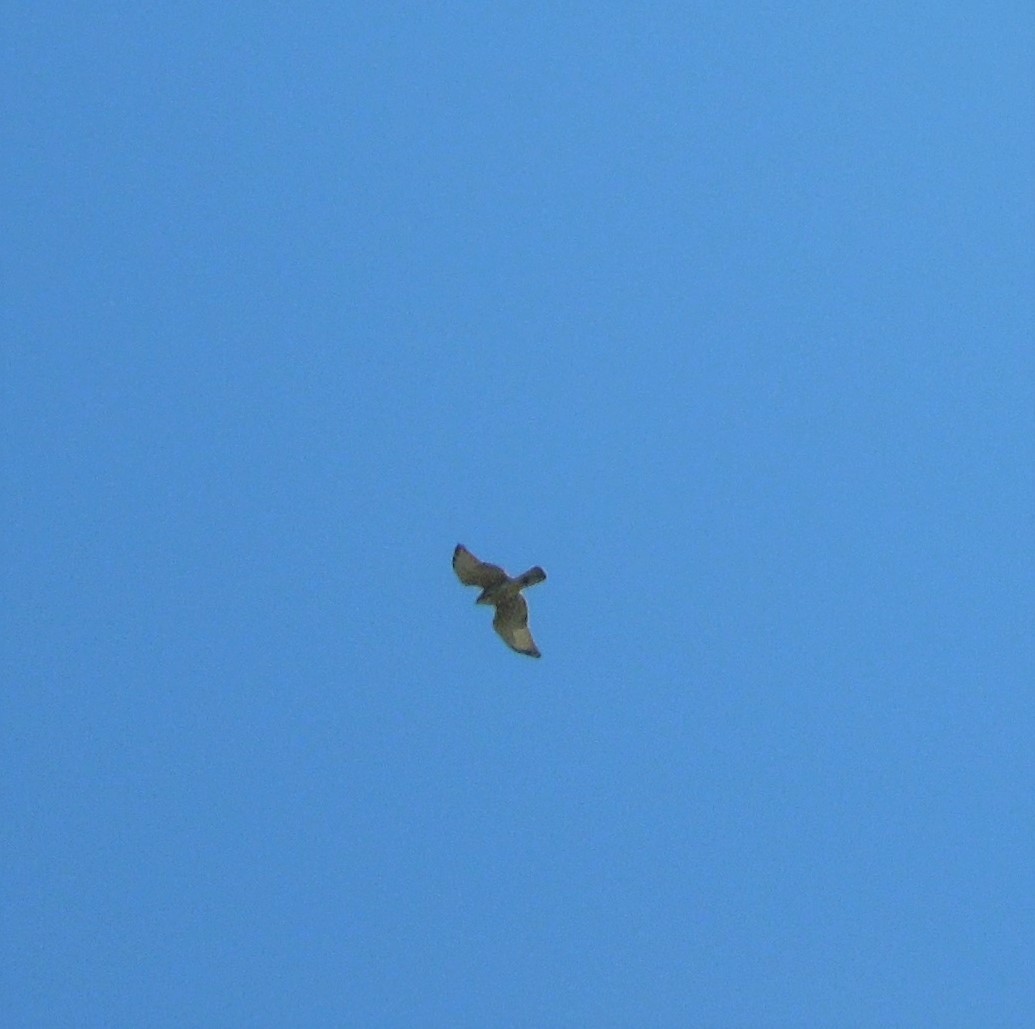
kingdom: Animalia
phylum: Chordata
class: Aves
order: Accipitriformes
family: Accipitridae
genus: Buteo
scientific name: Buteo platypterus
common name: Broad-winged hawk
